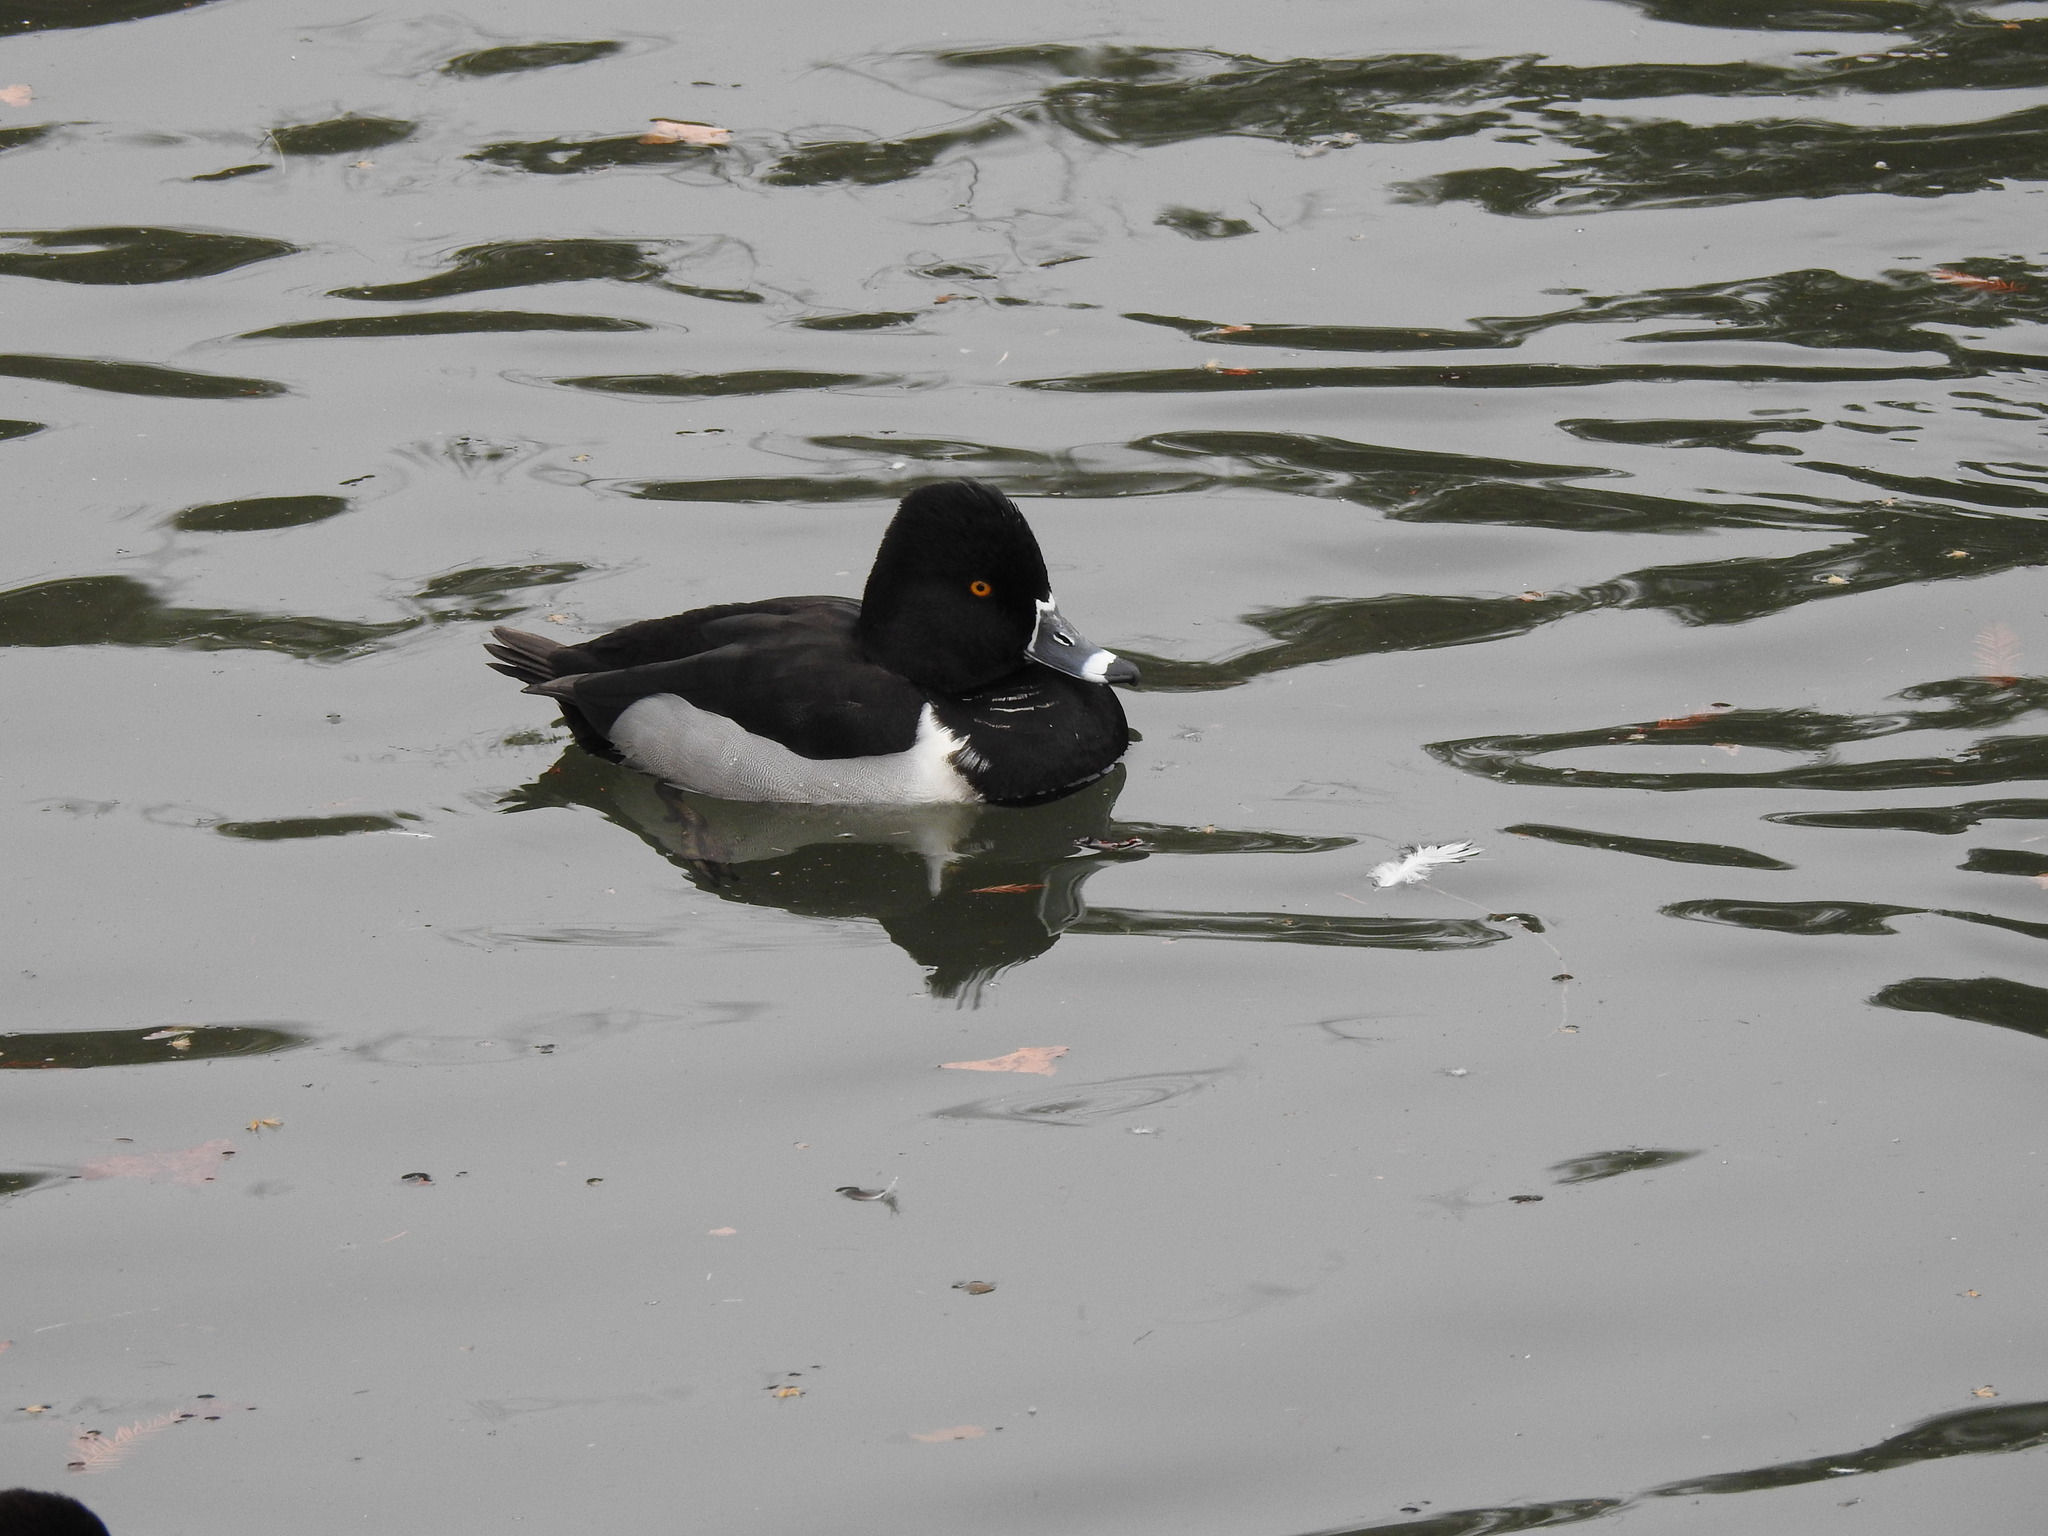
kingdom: Animalia
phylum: Chordata
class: Aves
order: Anseriformes
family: Anatidae
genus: Aythya
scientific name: Aythya collaris
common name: Ring-necked duck
